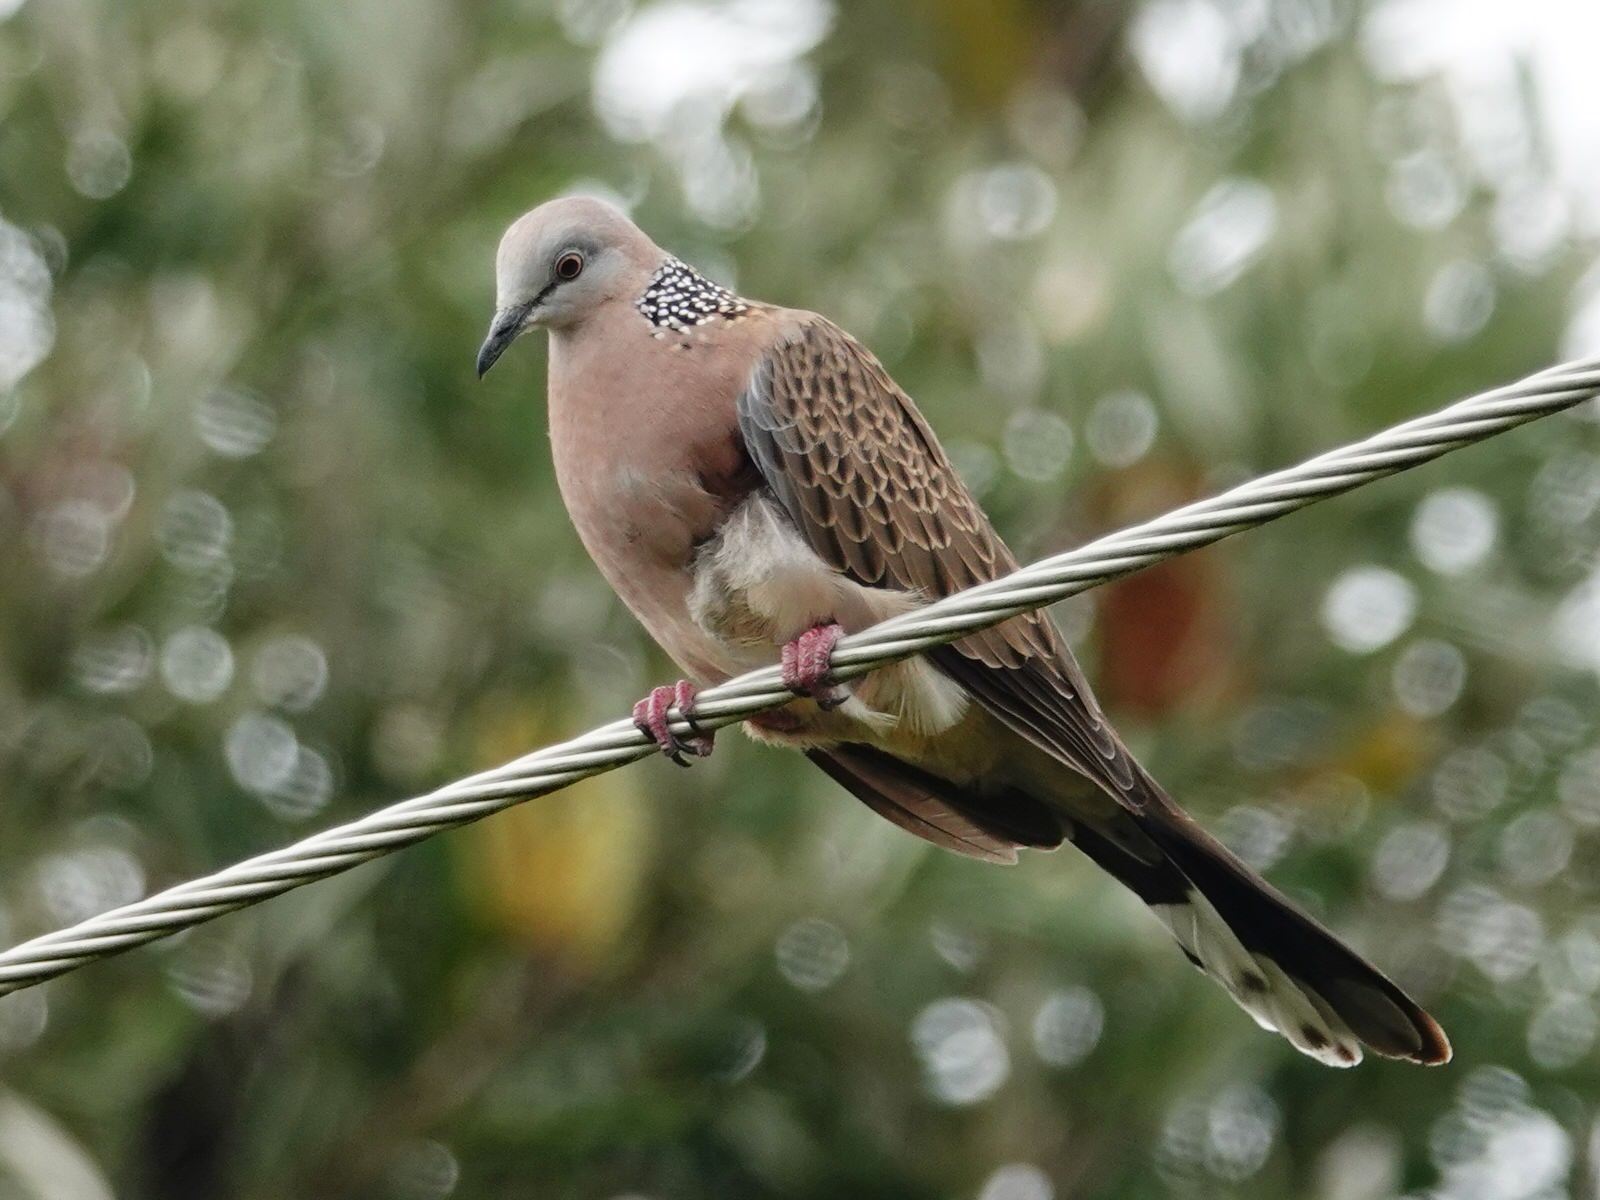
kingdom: Animalia
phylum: Chordata
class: Aves
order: Columbiformes
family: Columbidae
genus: Spilopelia
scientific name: Spilopelia chinensis
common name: Spotted dove
